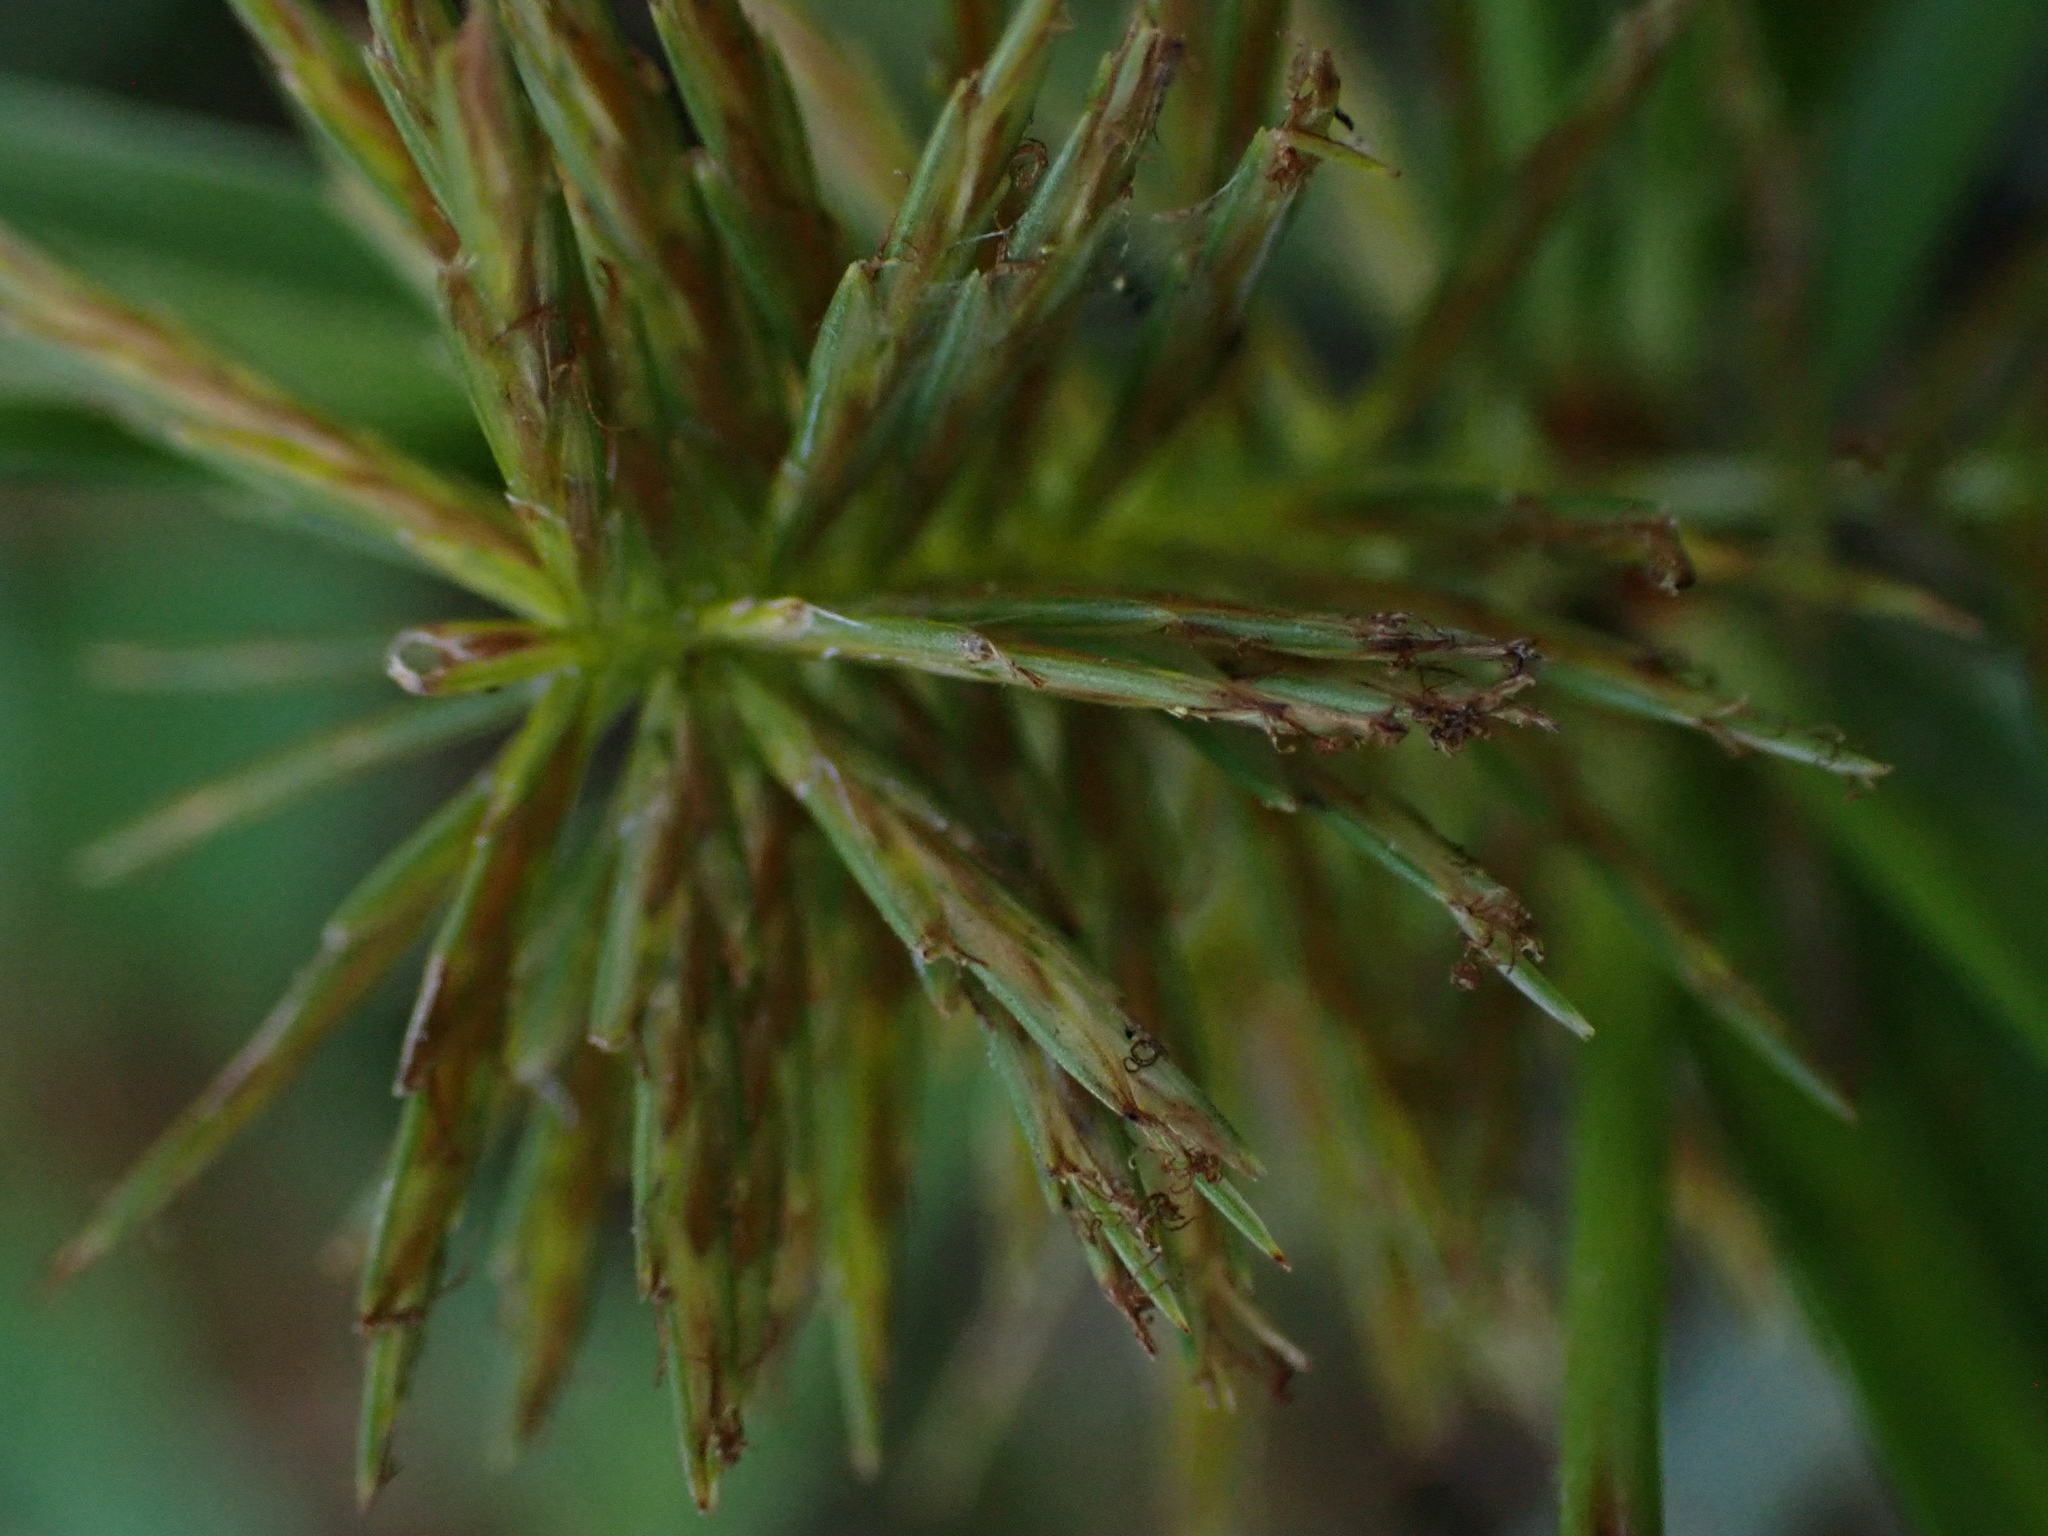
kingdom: Plantae
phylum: Tracheophyta
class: Liliopsida
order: Poales
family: Cyperaceae
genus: Cyperus
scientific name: Cyperus strigosus
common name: False nutsedge
